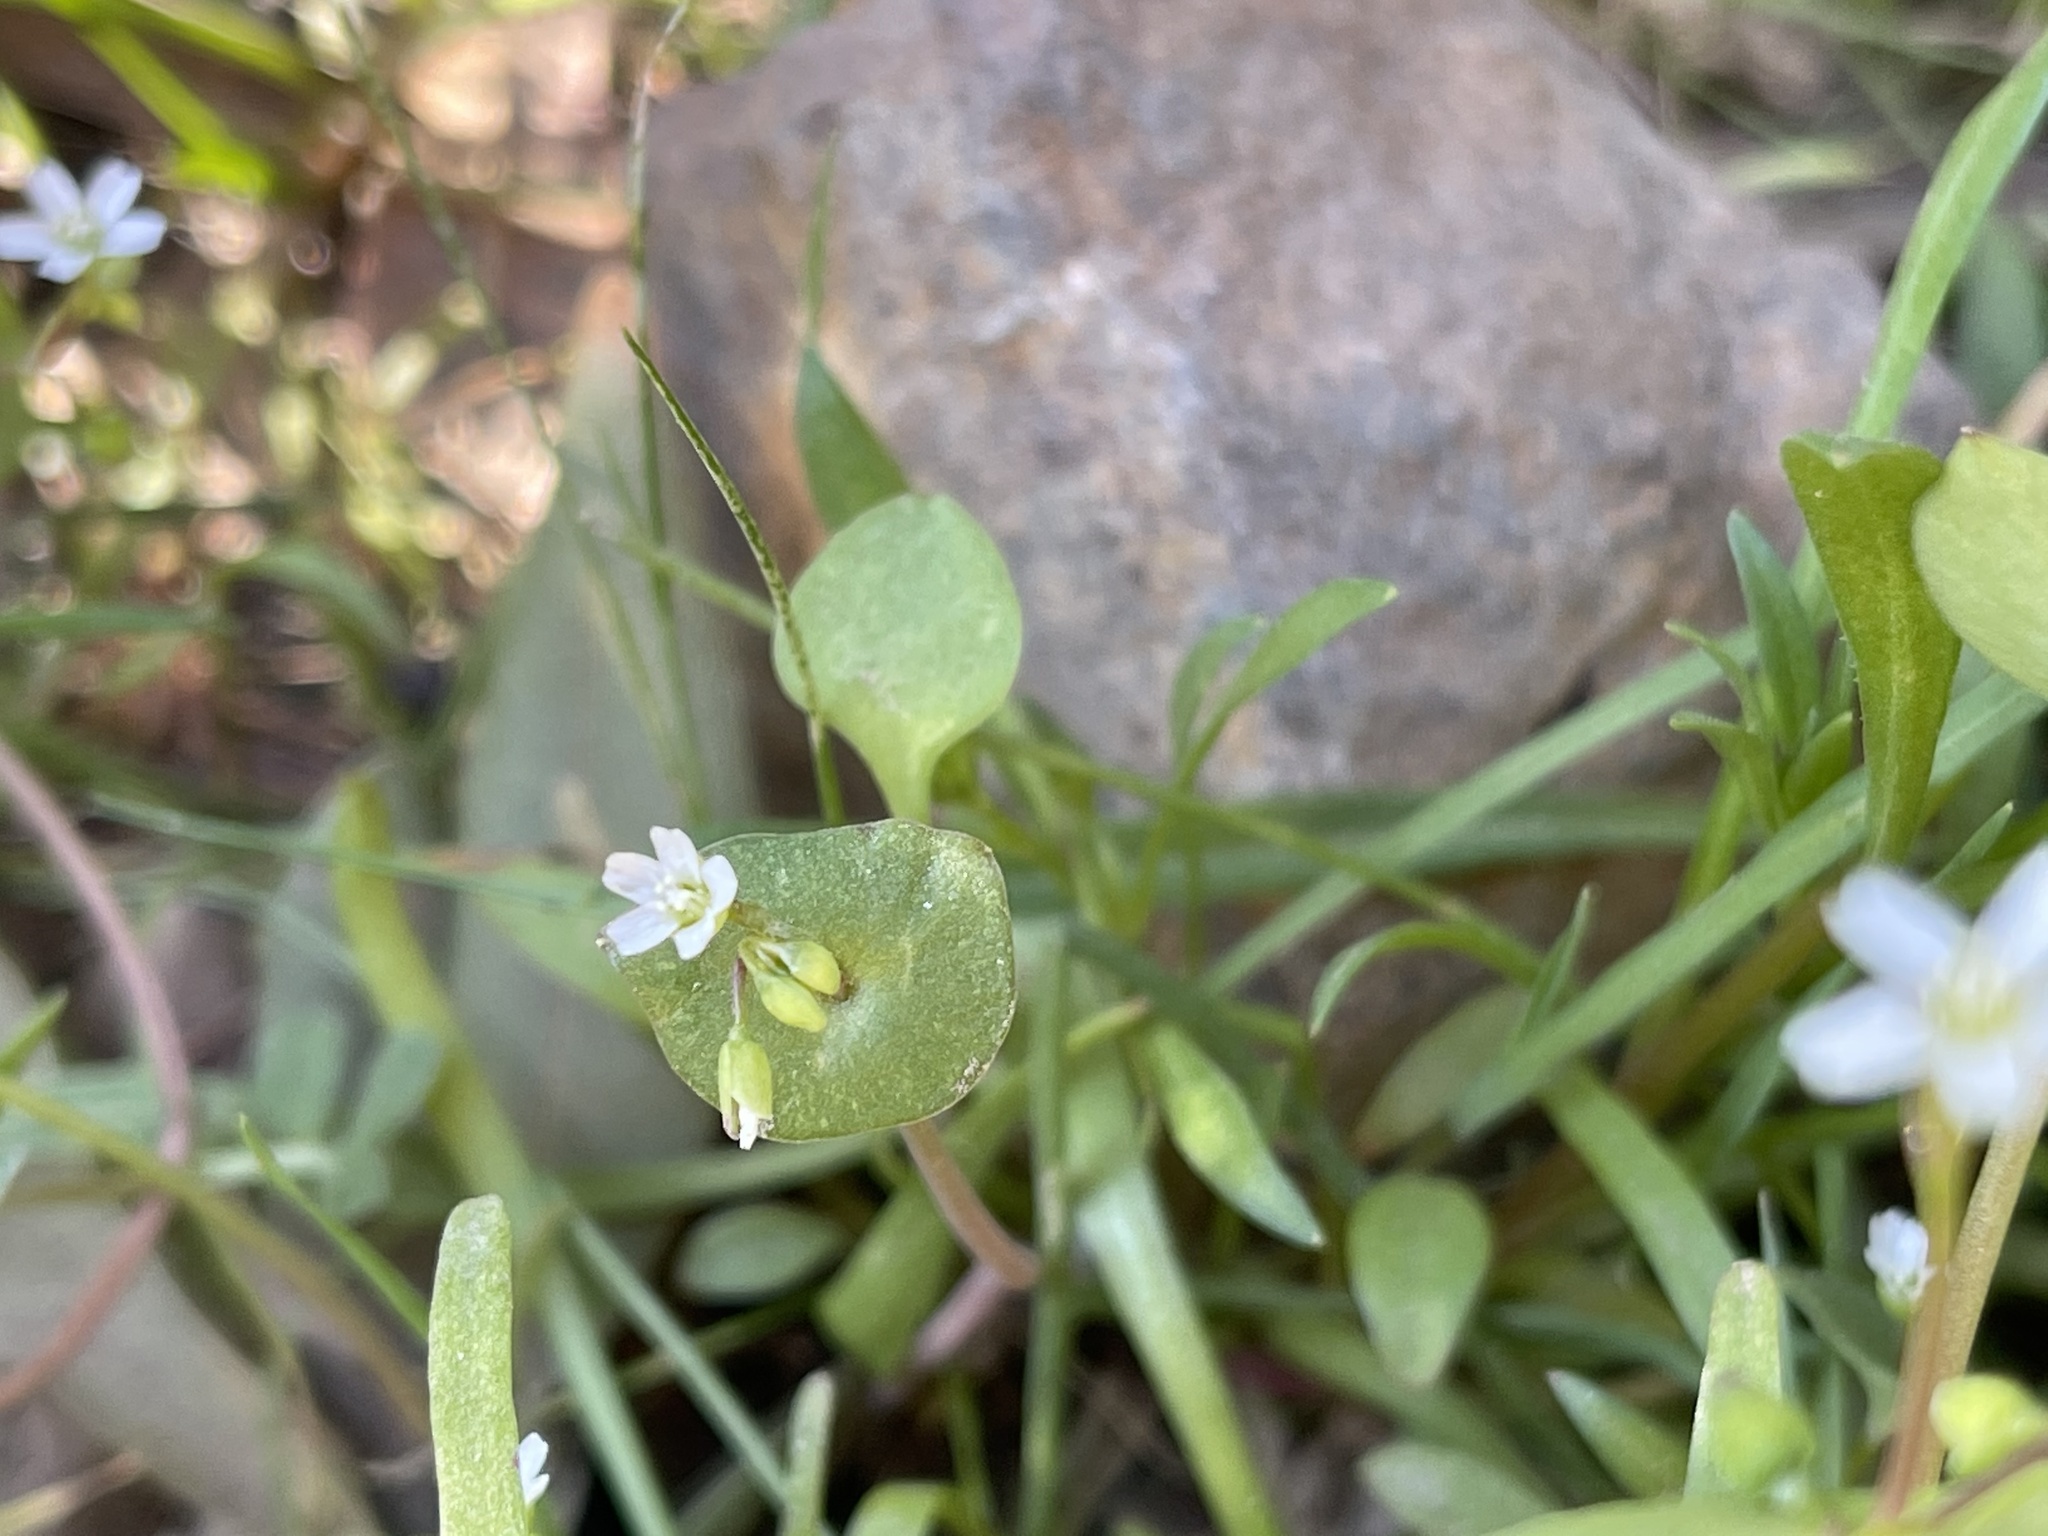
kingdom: Plantae
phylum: Tracheophyta
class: Magnoliopsida
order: Caryophyllales
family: Montiaceae
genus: Claytonia
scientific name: Claytonia perfoliata
